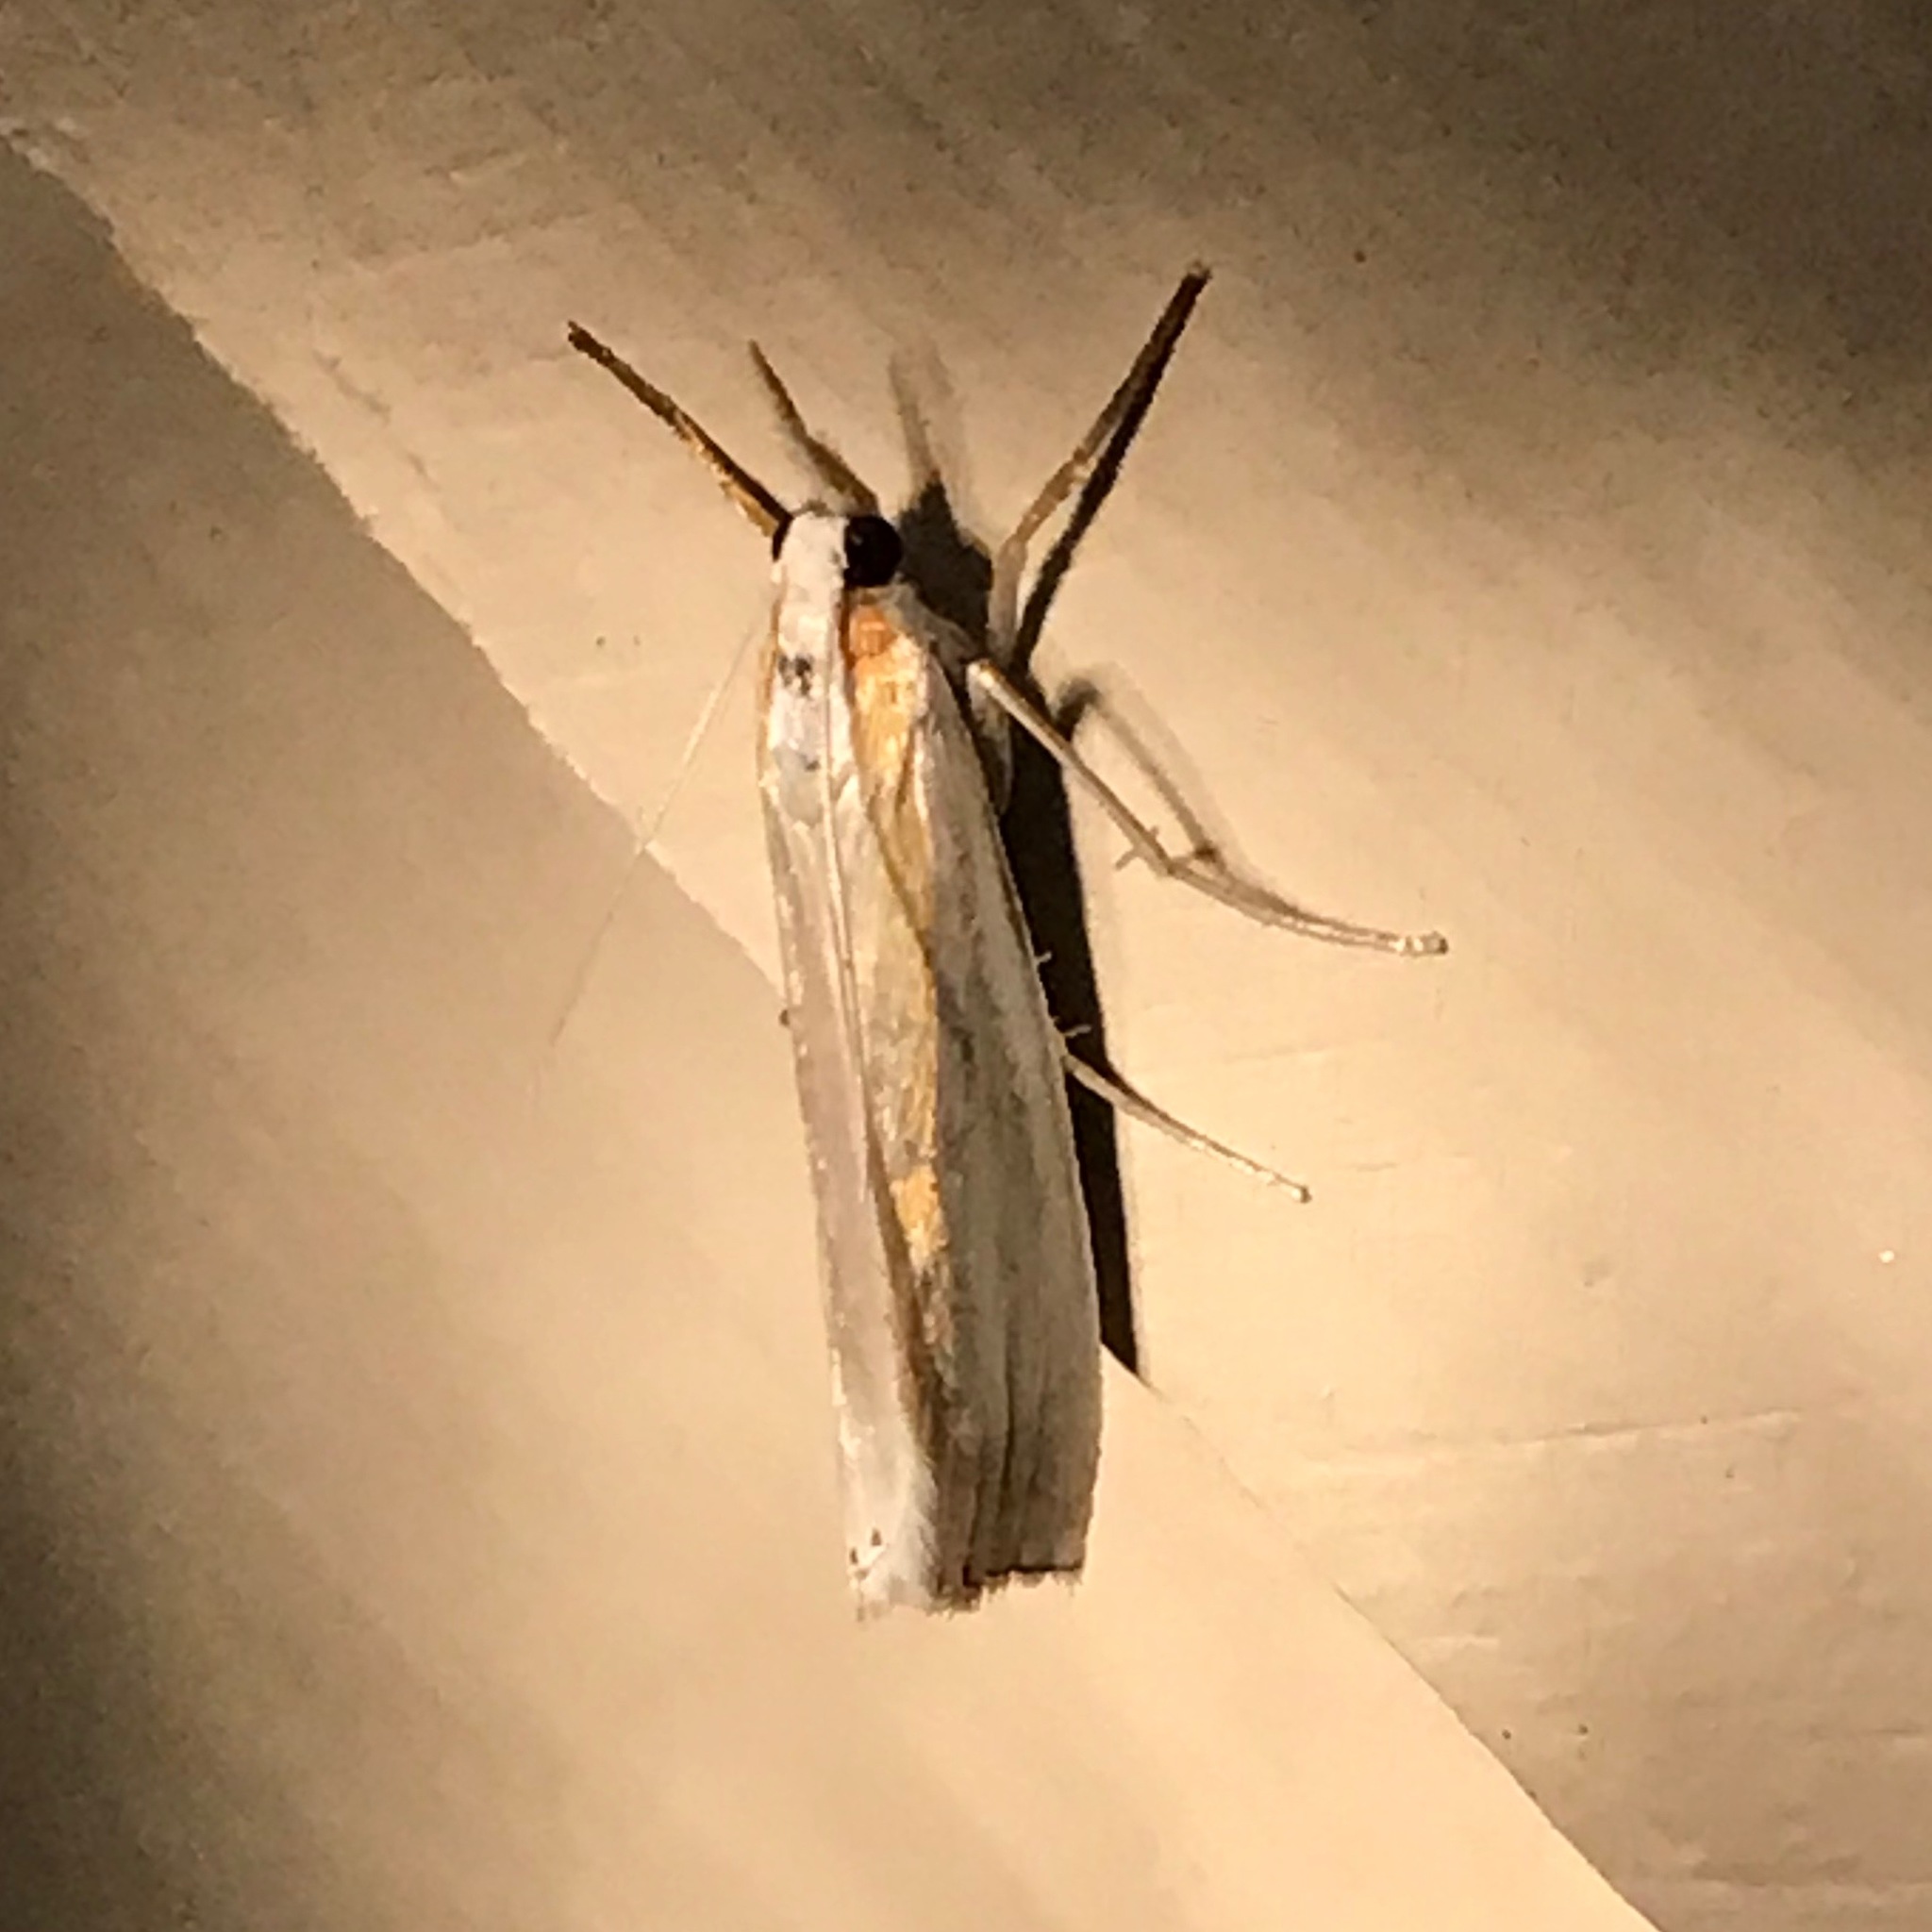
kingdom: Animalia
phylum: Arthropoda
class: Insecta
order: Lepidoptera
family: Crambidae
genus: Crambus
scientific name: Crambus girardellus
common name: Girard's grass-veneer
